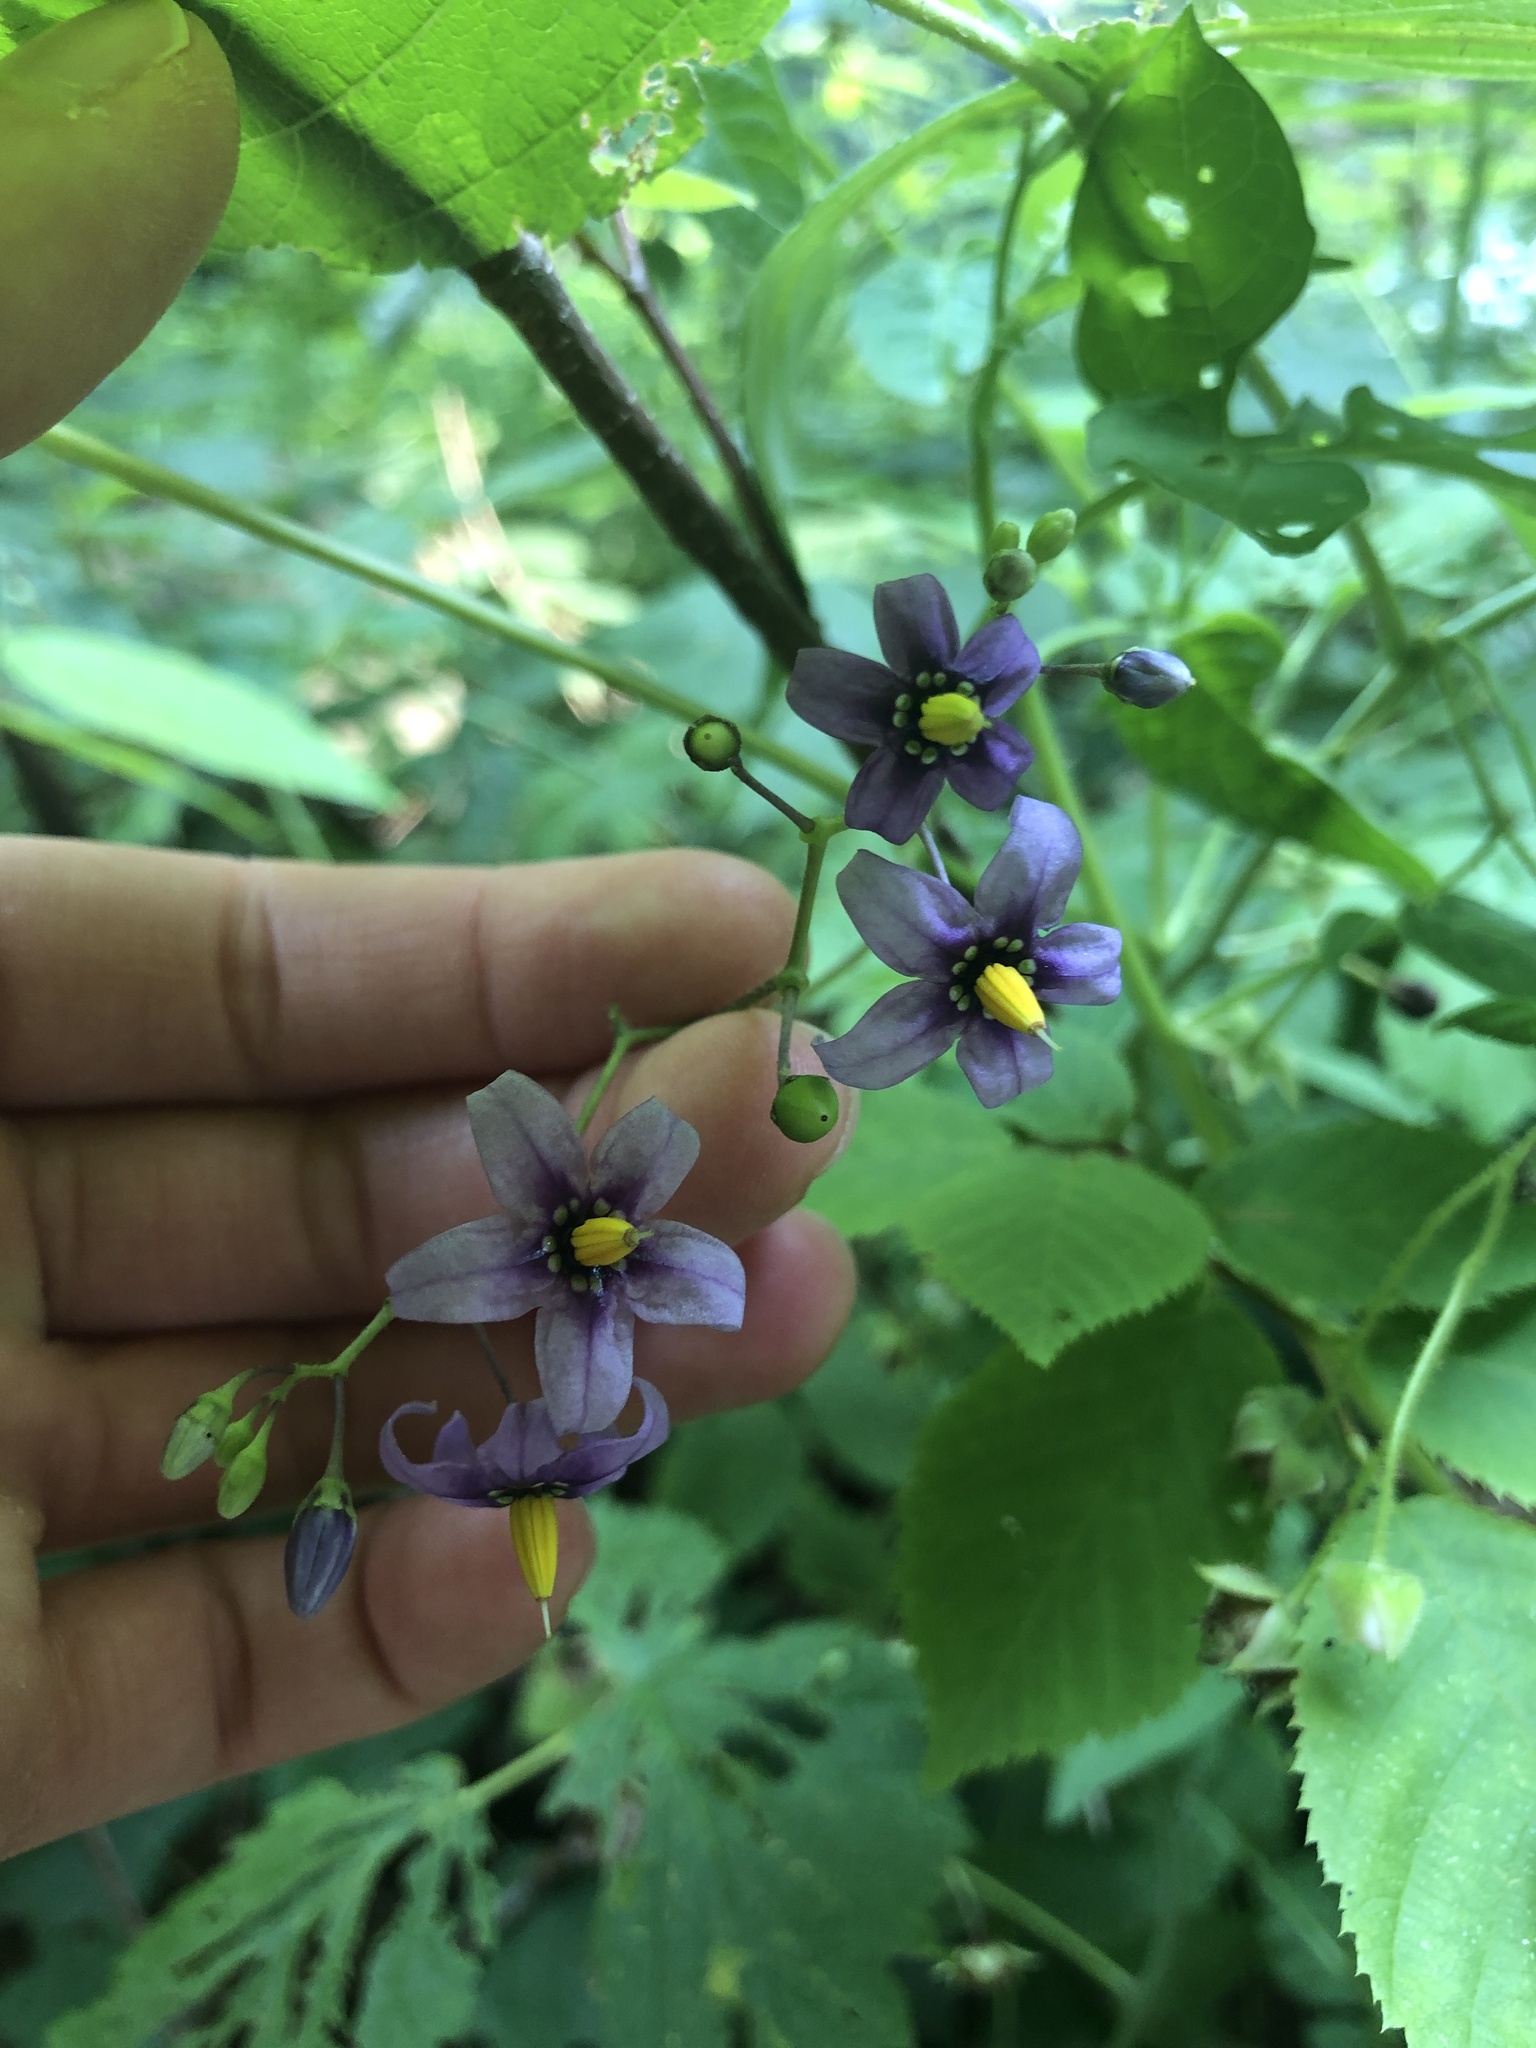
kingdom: Plantae
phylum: Tracheophyta
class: Magnoliopsida
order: Solanales
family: Solanaceae
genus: Solanum
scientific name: Solanum dulcamara
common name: Climbing nightshade
